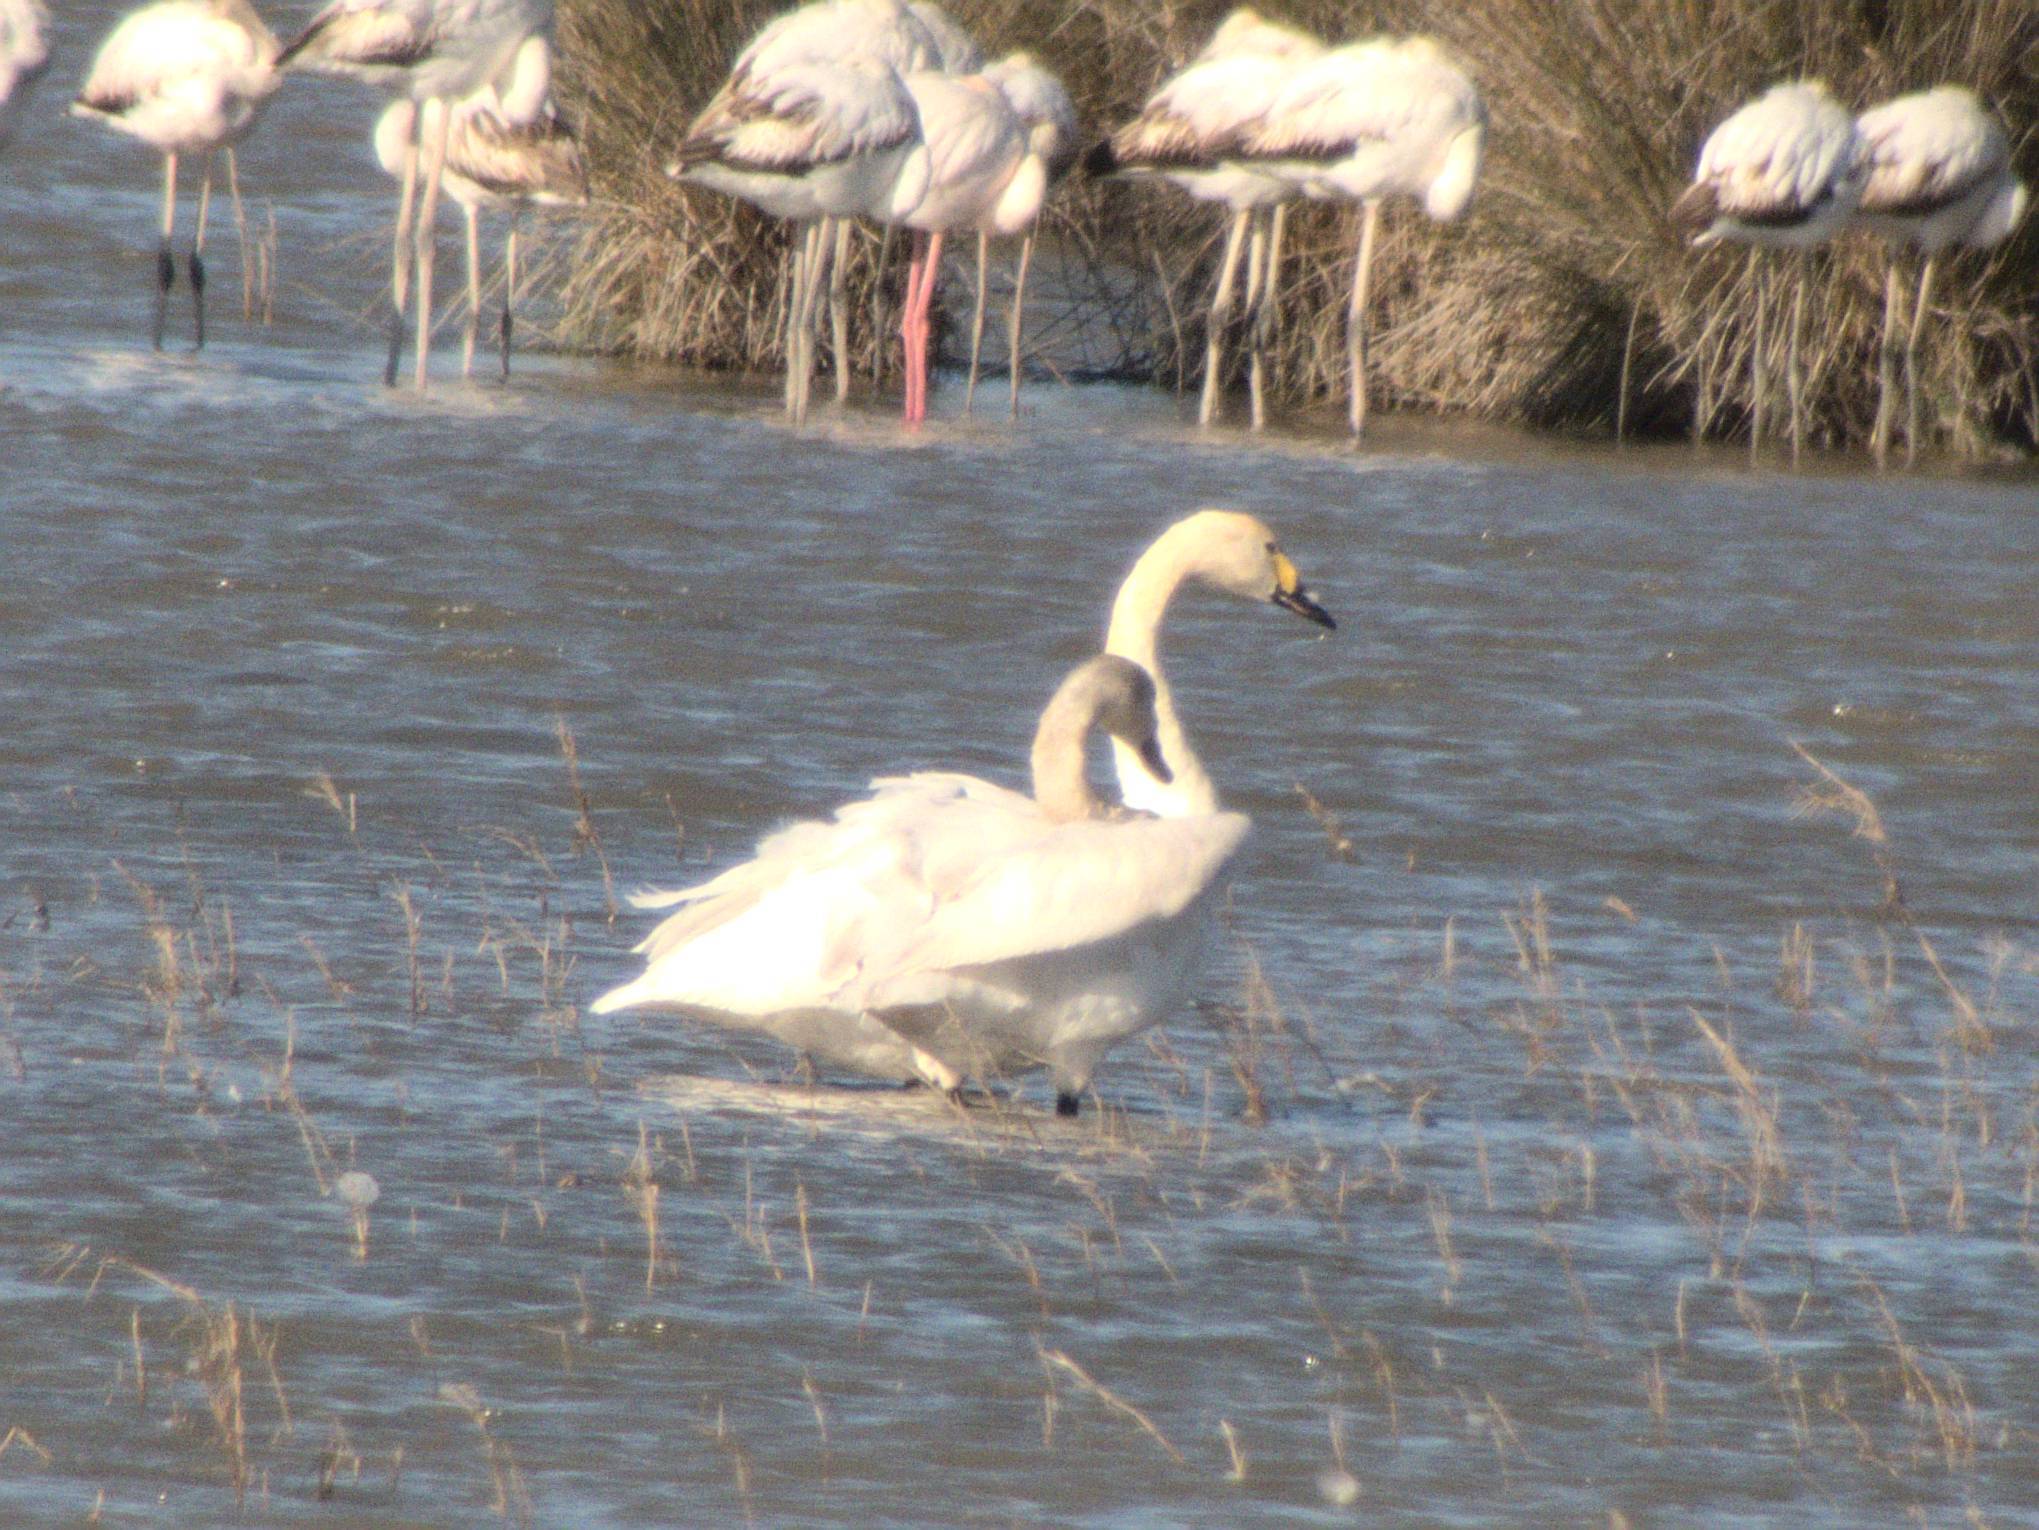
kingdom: Animalia
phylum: Chordata
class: Aves
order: Anseriformes
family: Anatidae
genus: Cygnus
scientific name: Cygnus columbianus
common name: Tundra swan
